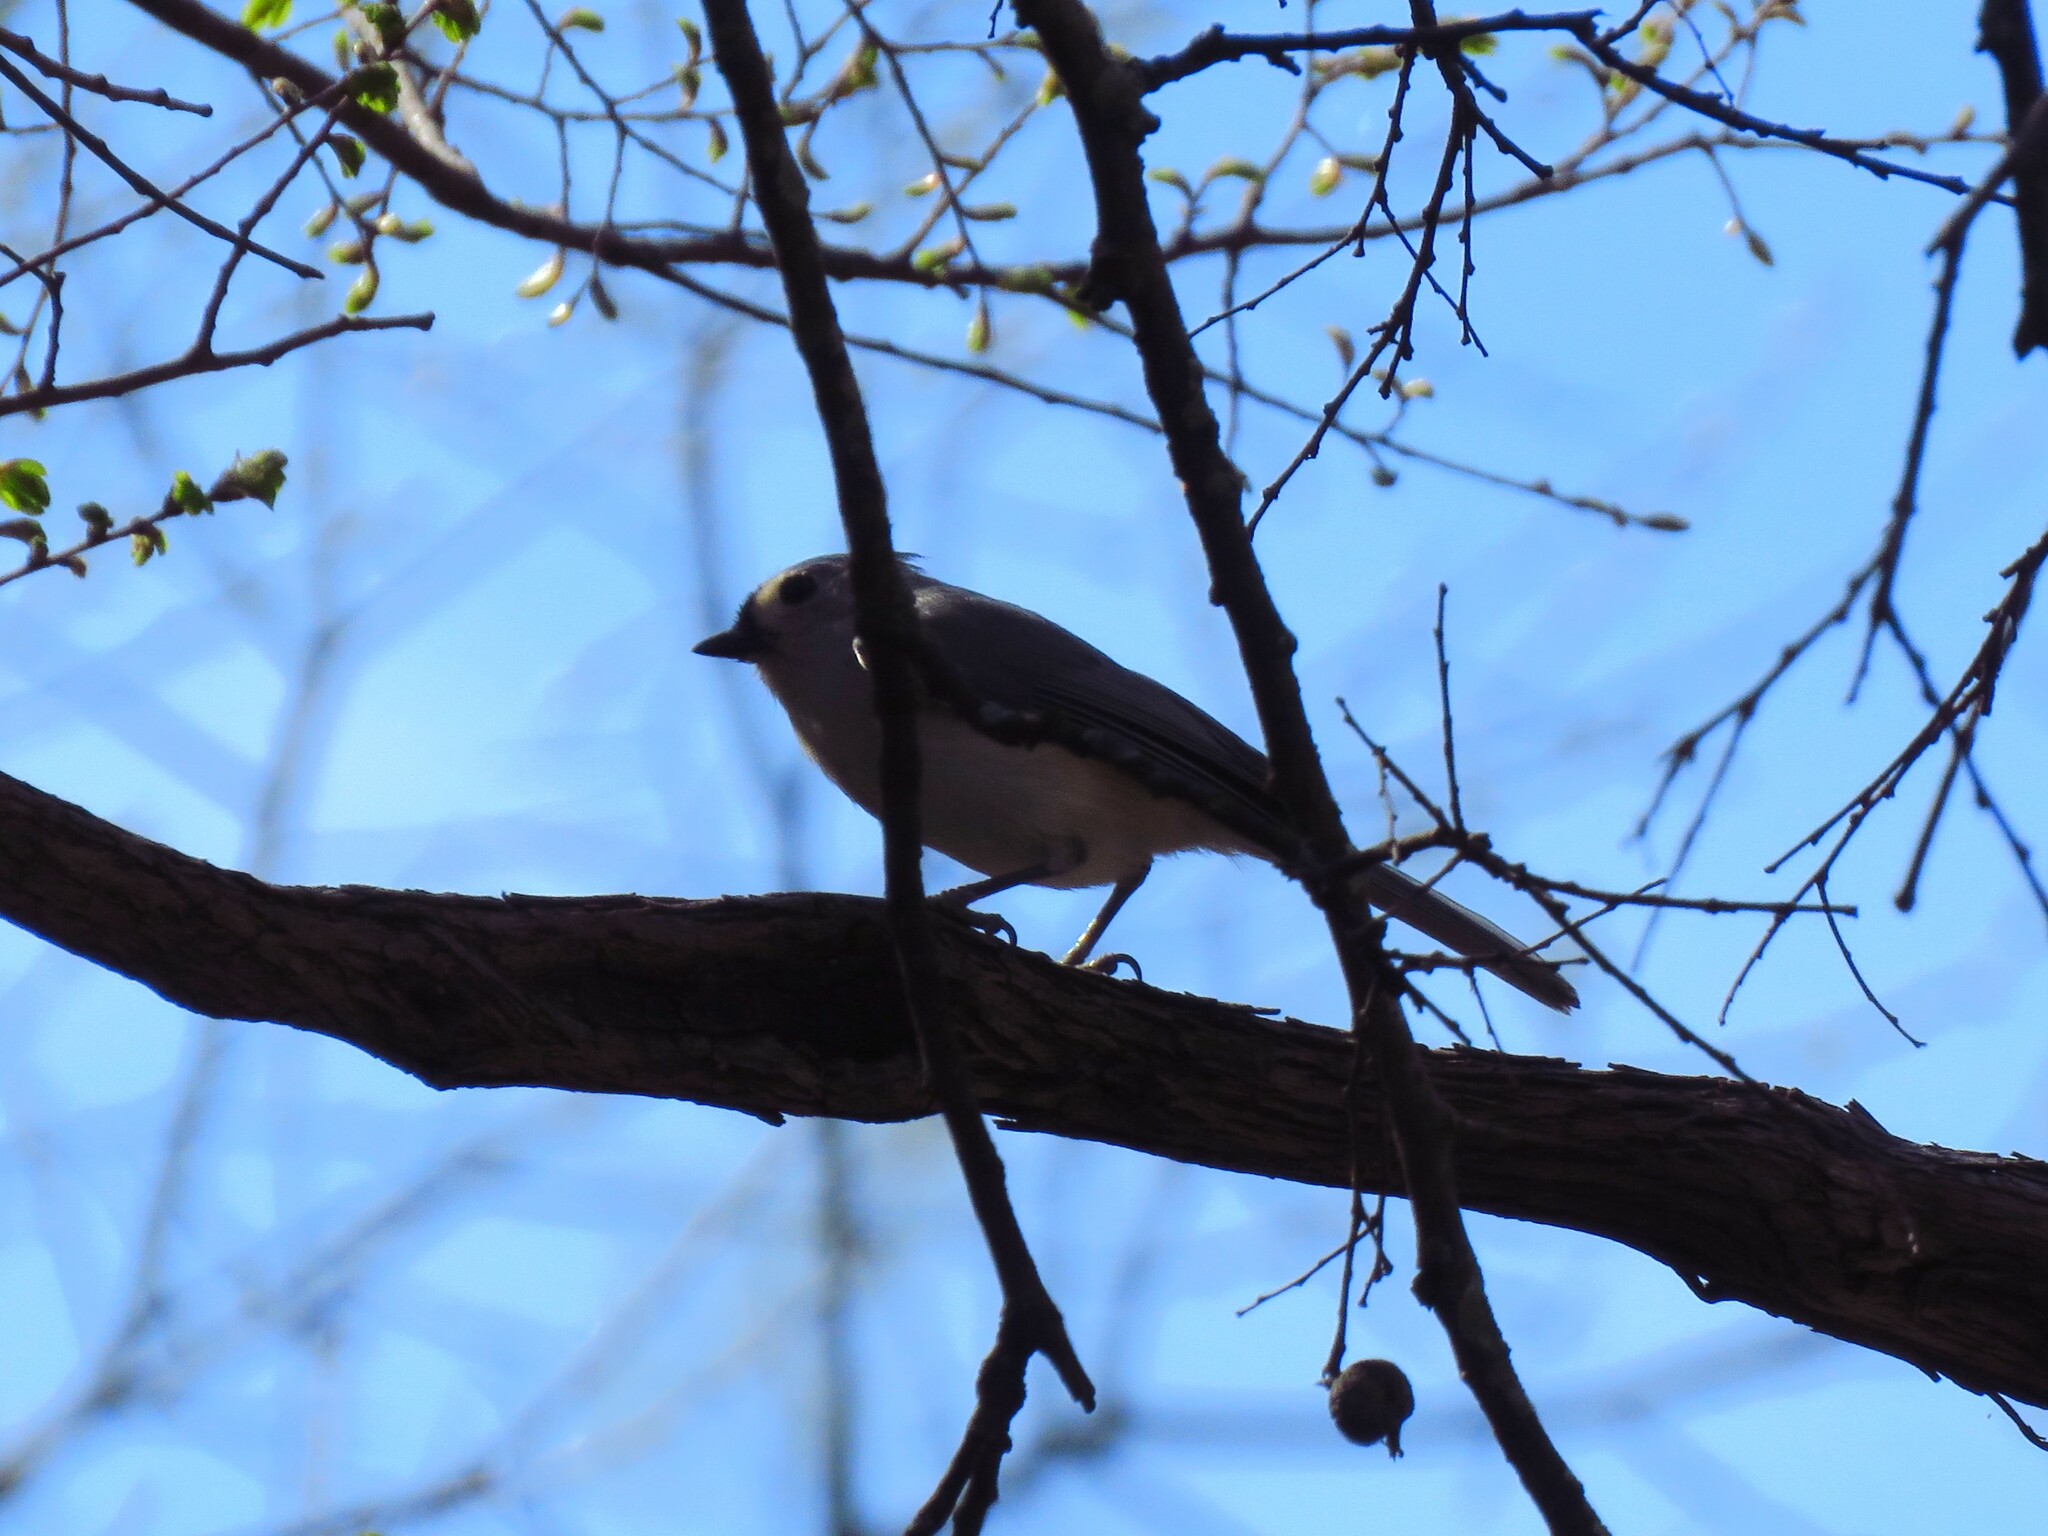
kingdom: Animalia
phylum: Chordata
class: Aves
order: Passeriformes
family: Paridae
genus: Baeolophus
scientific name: Baeolophus bicolor
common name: Tufted titmouse
